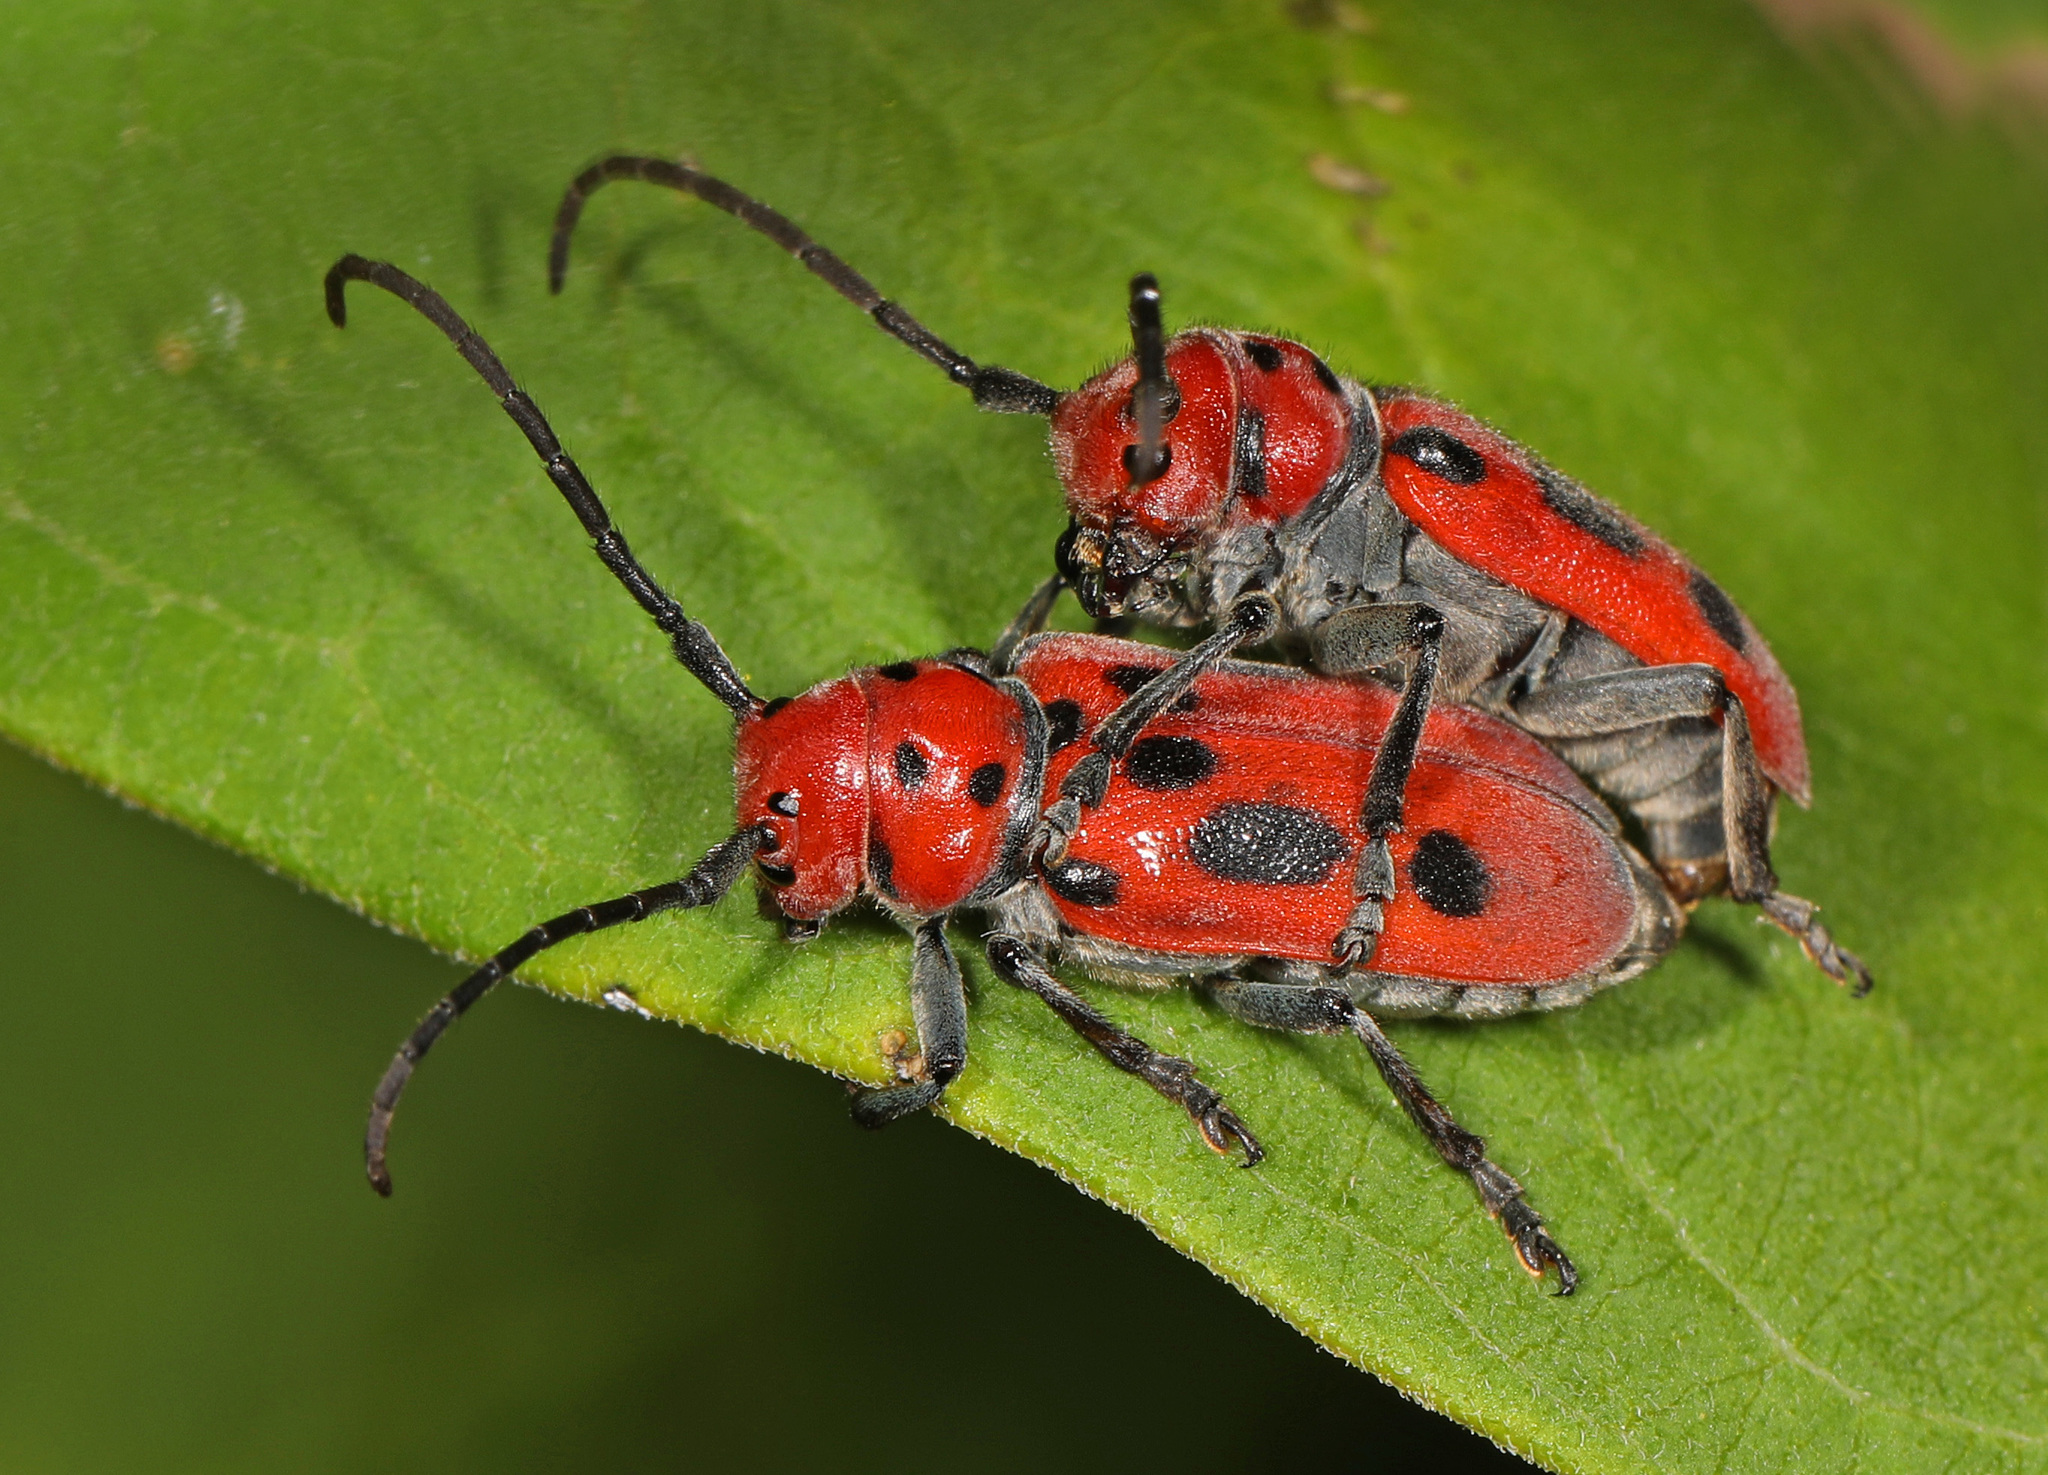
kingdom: Animalia
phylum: Arthropoda
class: Insecta
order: Coleoptera
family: Cerambycidae
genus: Tetraopes
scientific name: Tetraopes tetrophthalmus
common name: Red milkweed beetle
